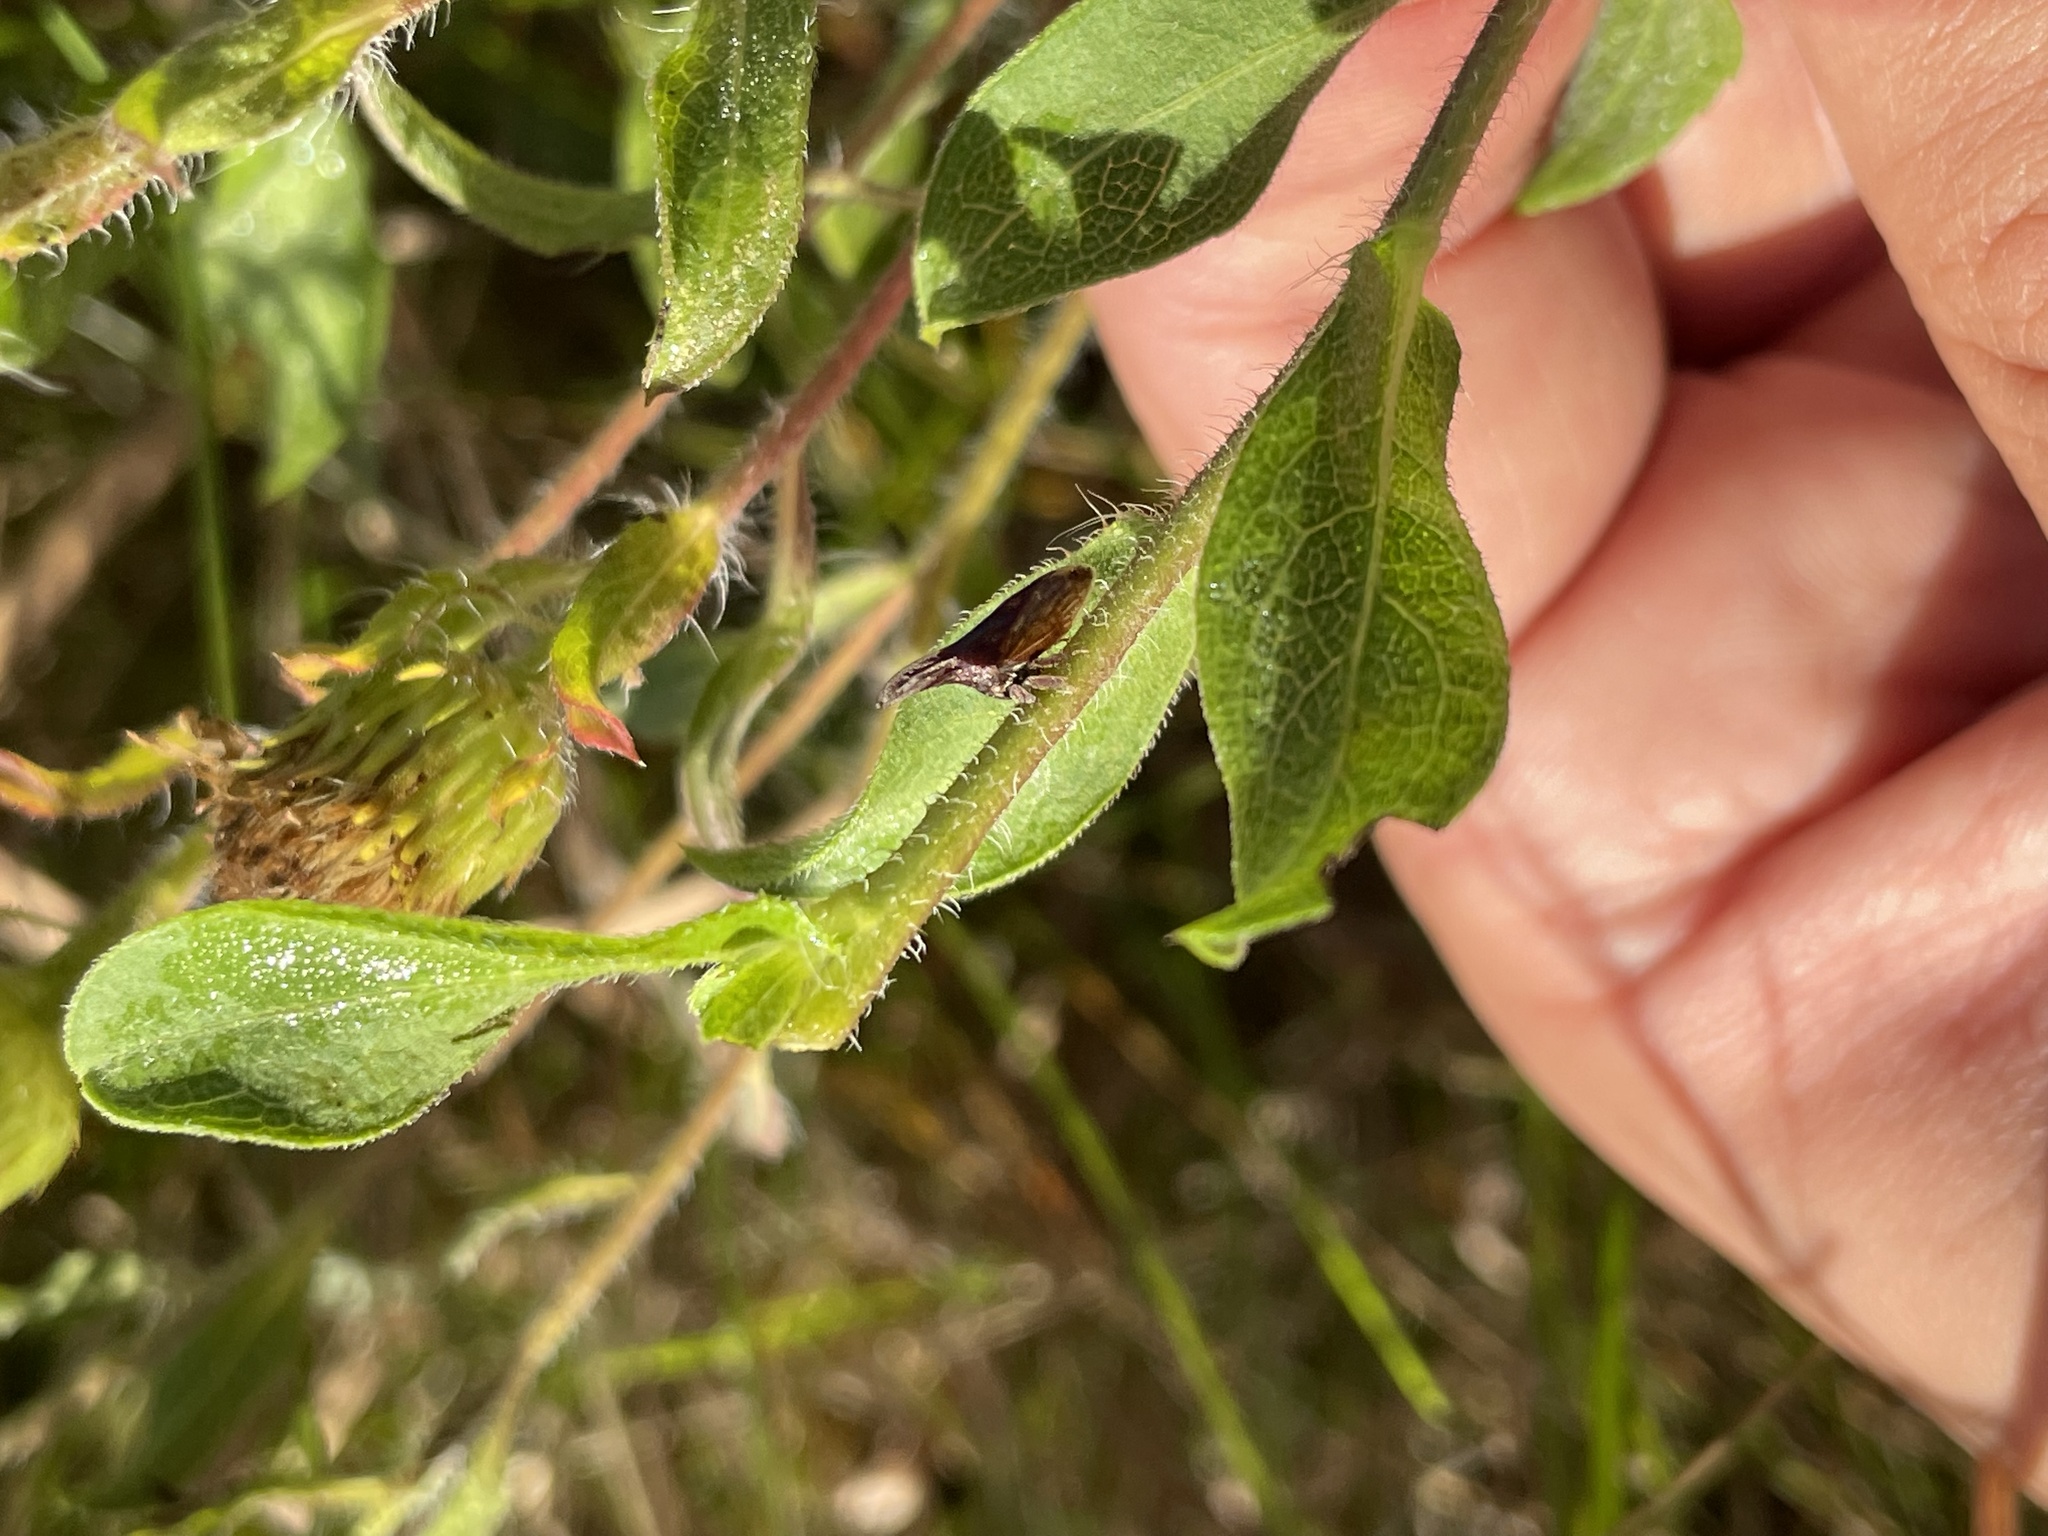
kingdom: Animalia
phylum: Arthropoda
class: Insecta
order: Hemiptera
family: Membracidae
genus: Enchenopa
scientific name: Enchenopa latipes
